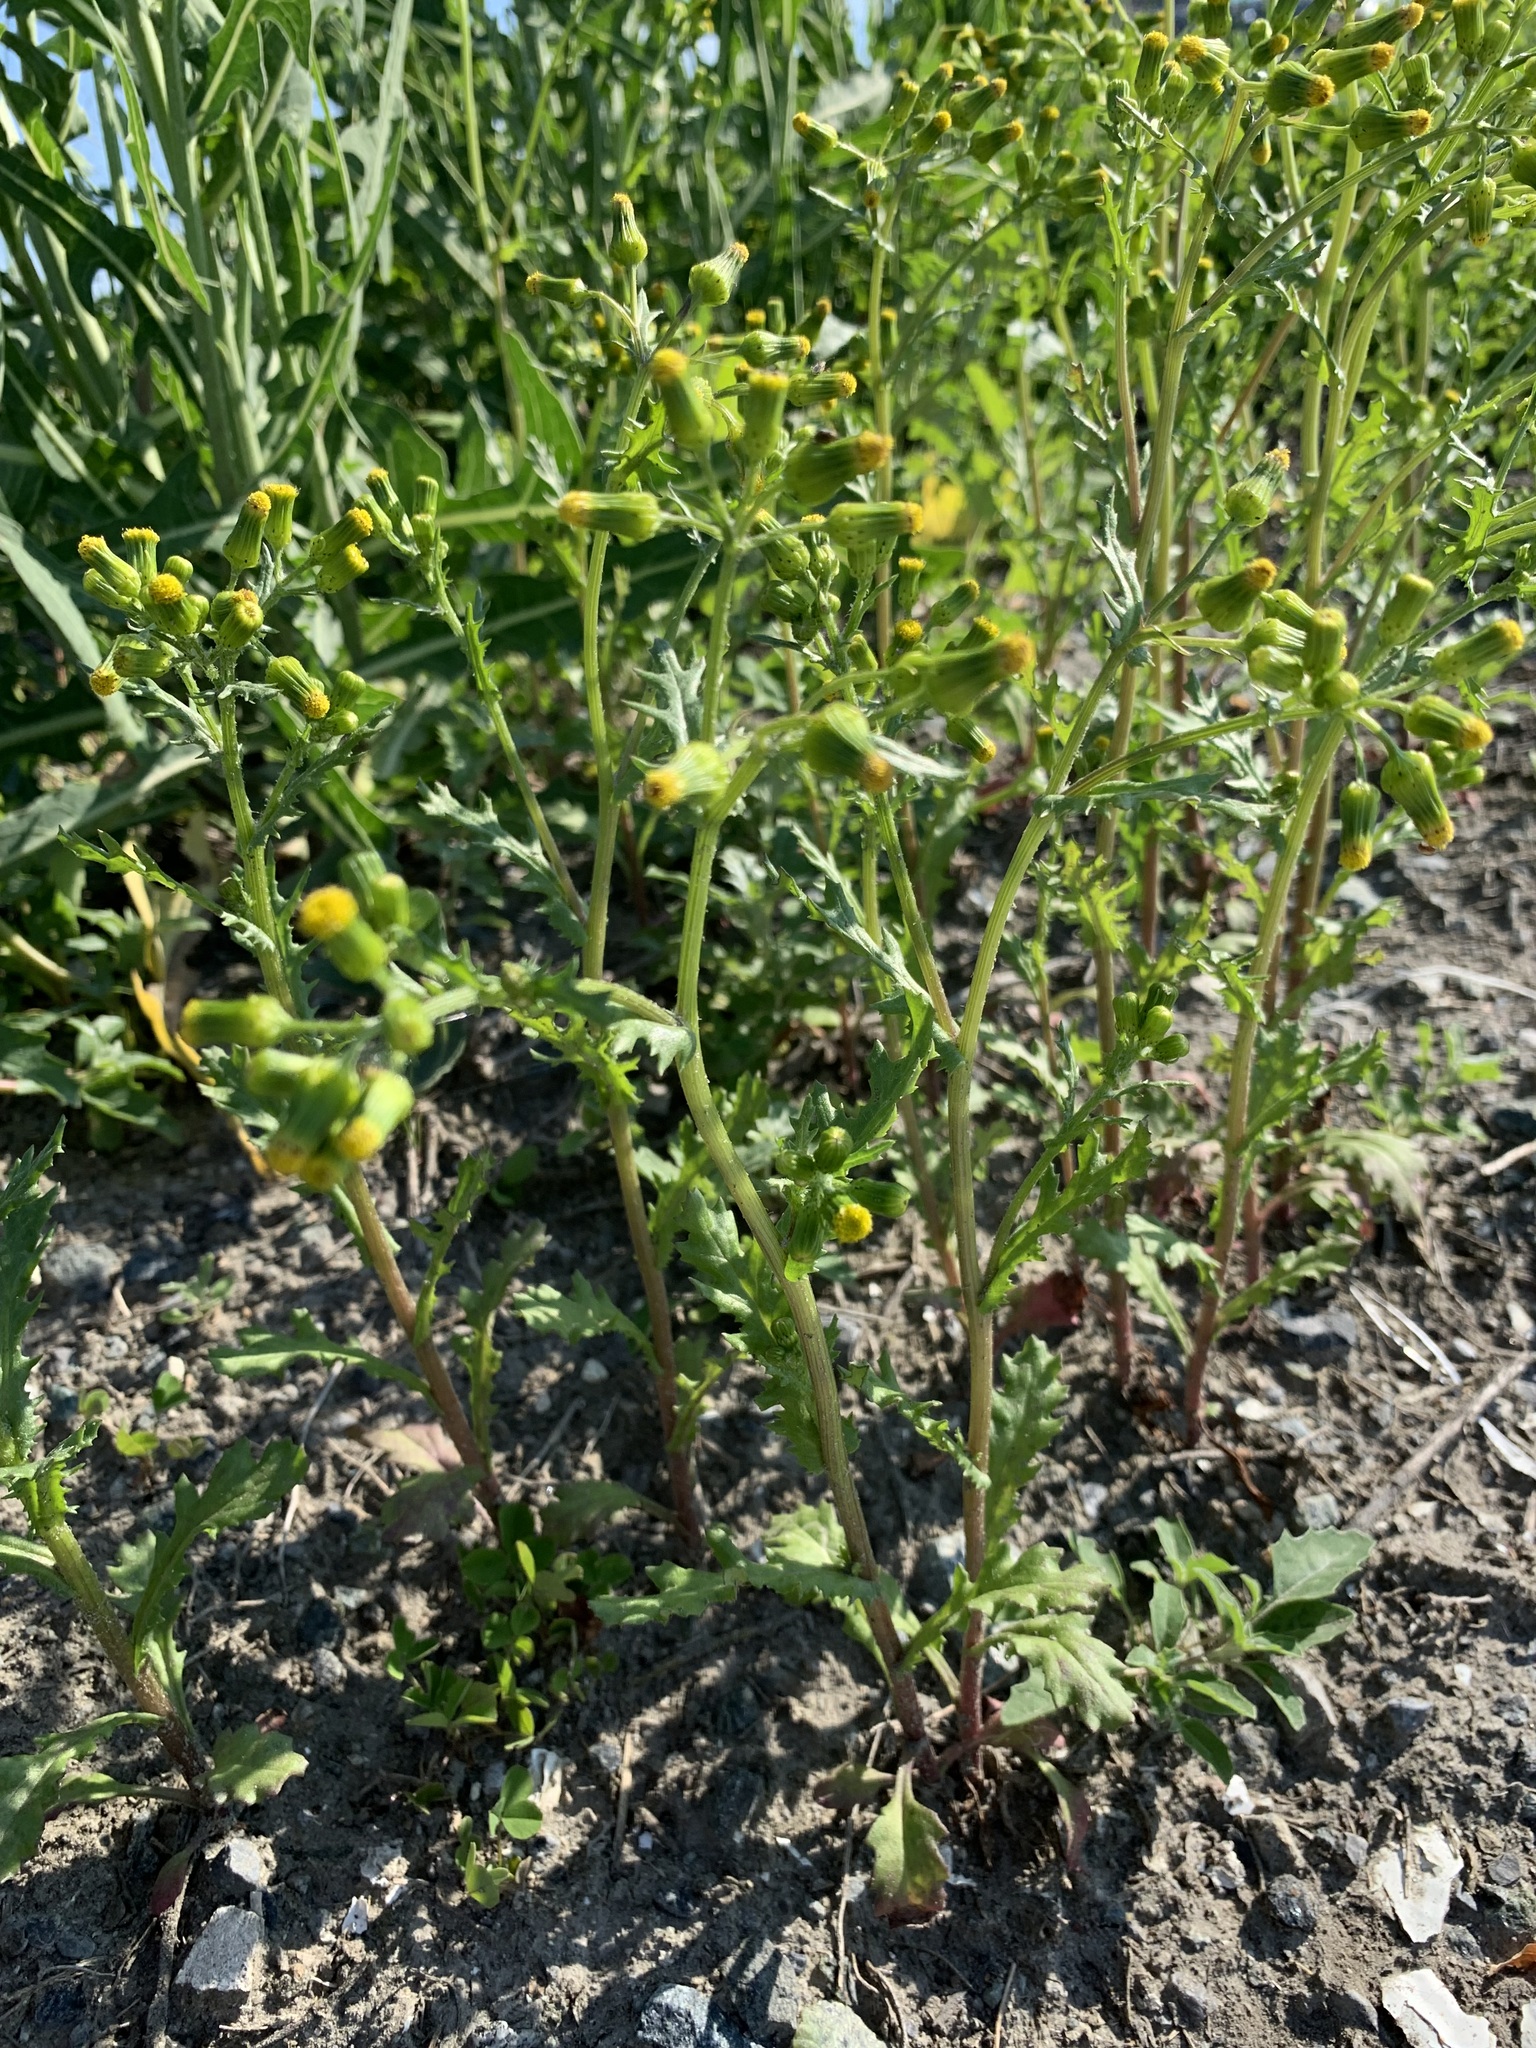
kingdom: Plantae
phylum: Tracheophyta
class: Magnoliopsida
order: Asterales
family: Asteraceae
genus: Senecio
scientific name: Senecio vulgaris
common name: Old-man-in-the-spring
